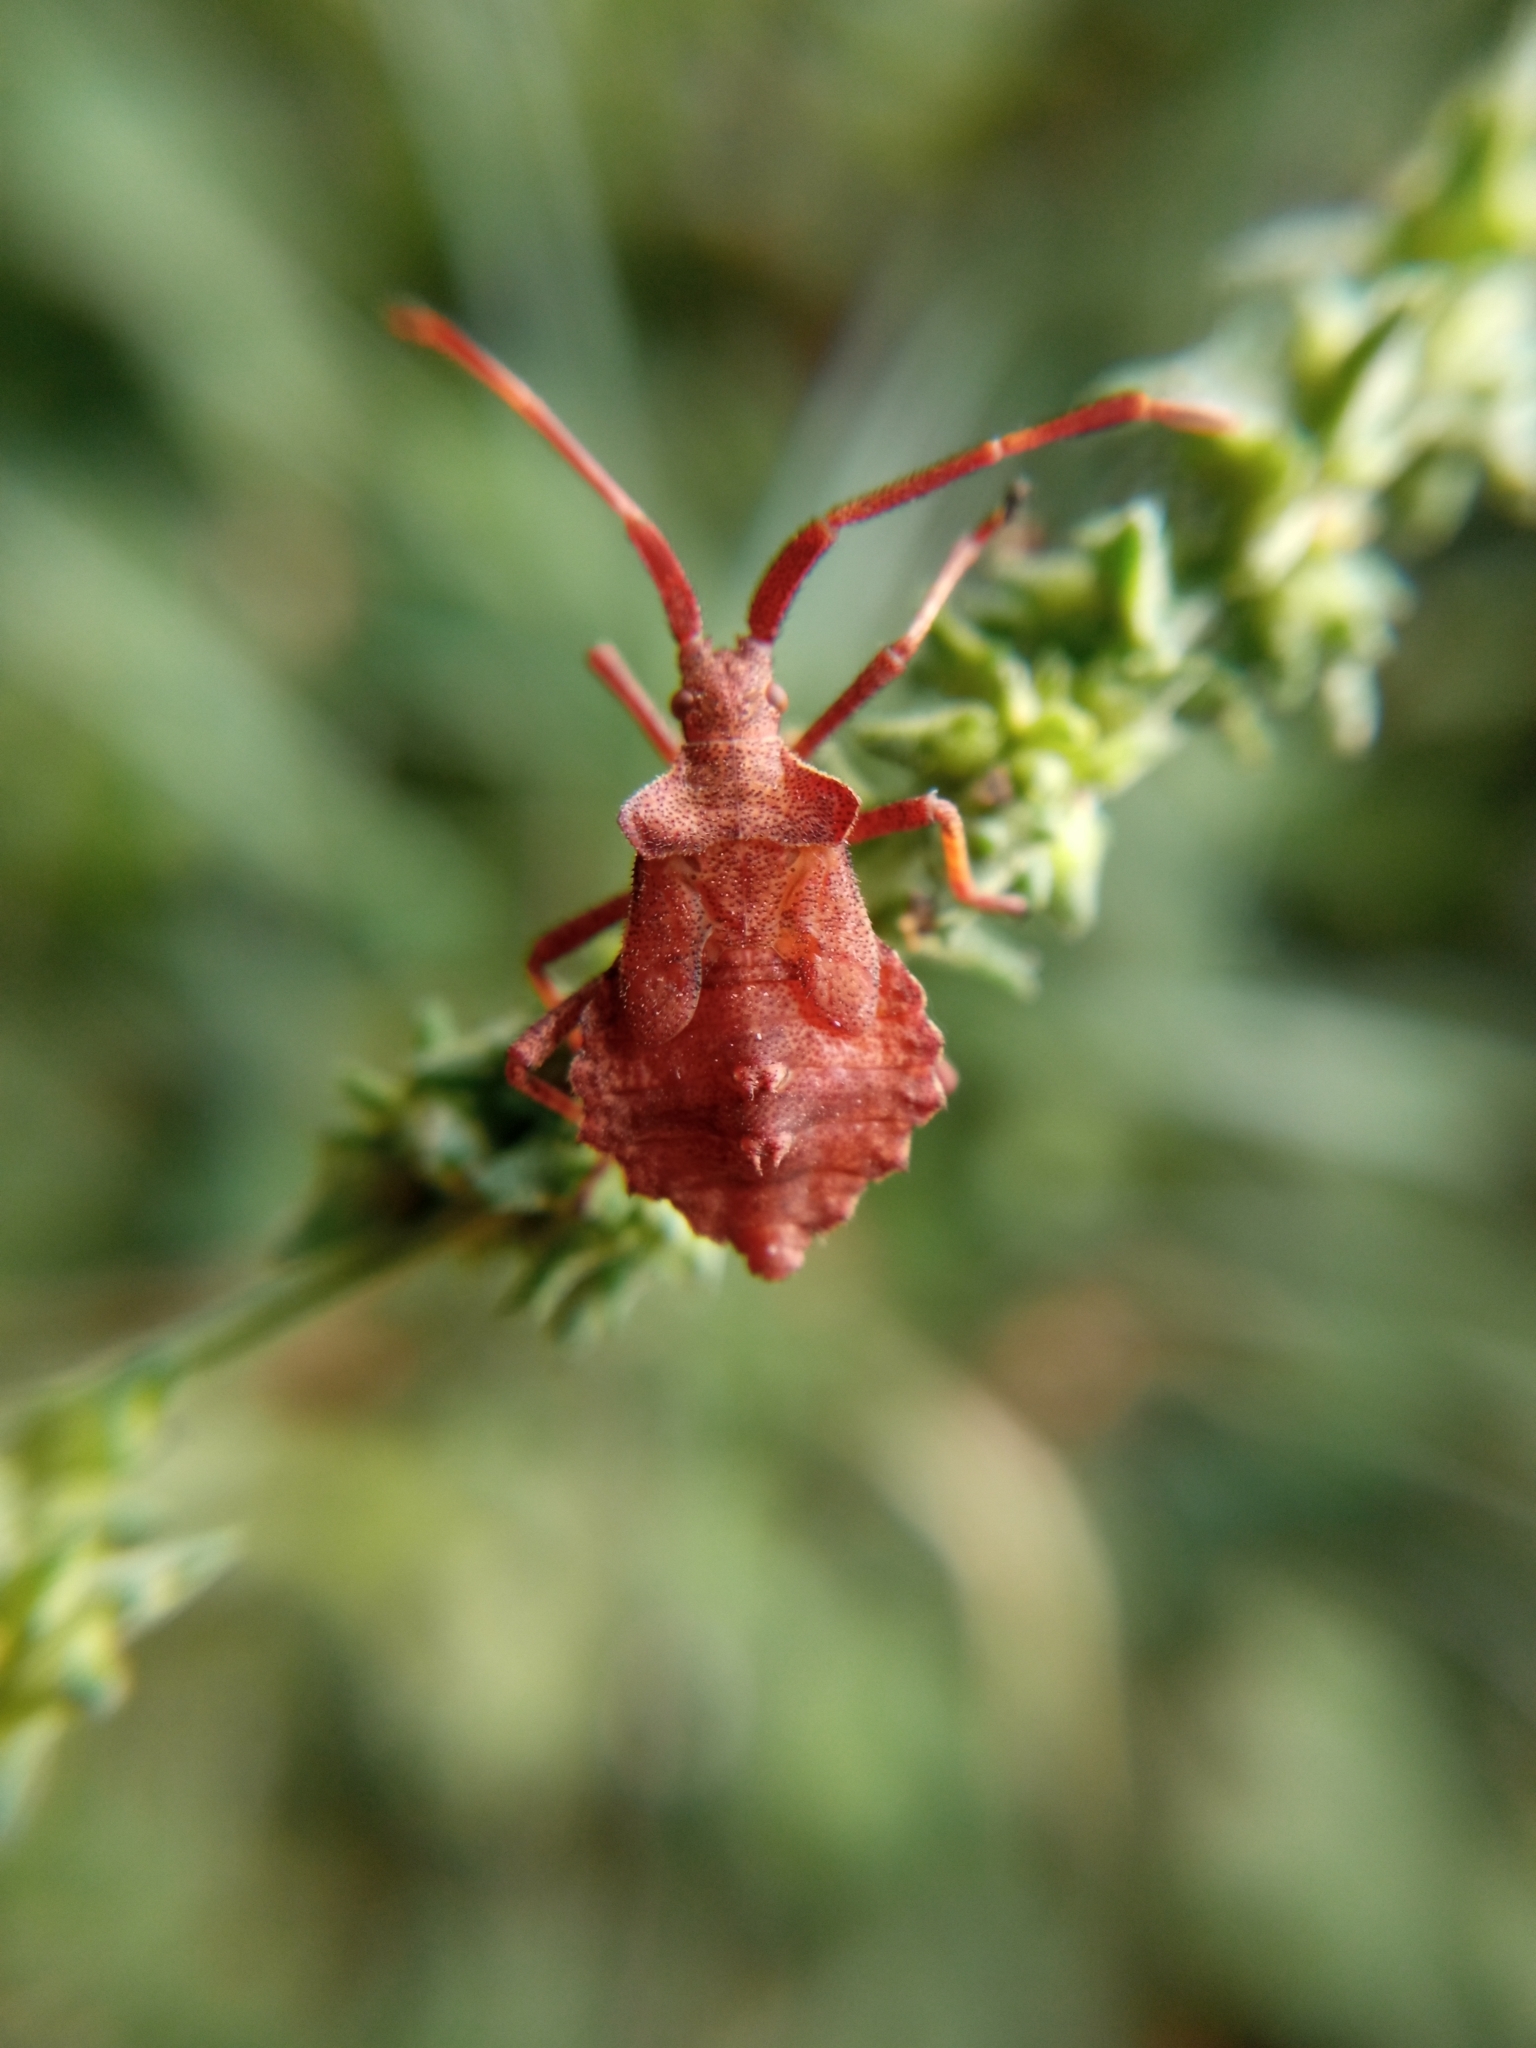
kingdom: Animalia
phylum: Arthropoda
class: Insecta
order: Hemiptera
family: Coreidae
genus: Coreus
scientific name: Coreus marginatus
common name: Dock bug
